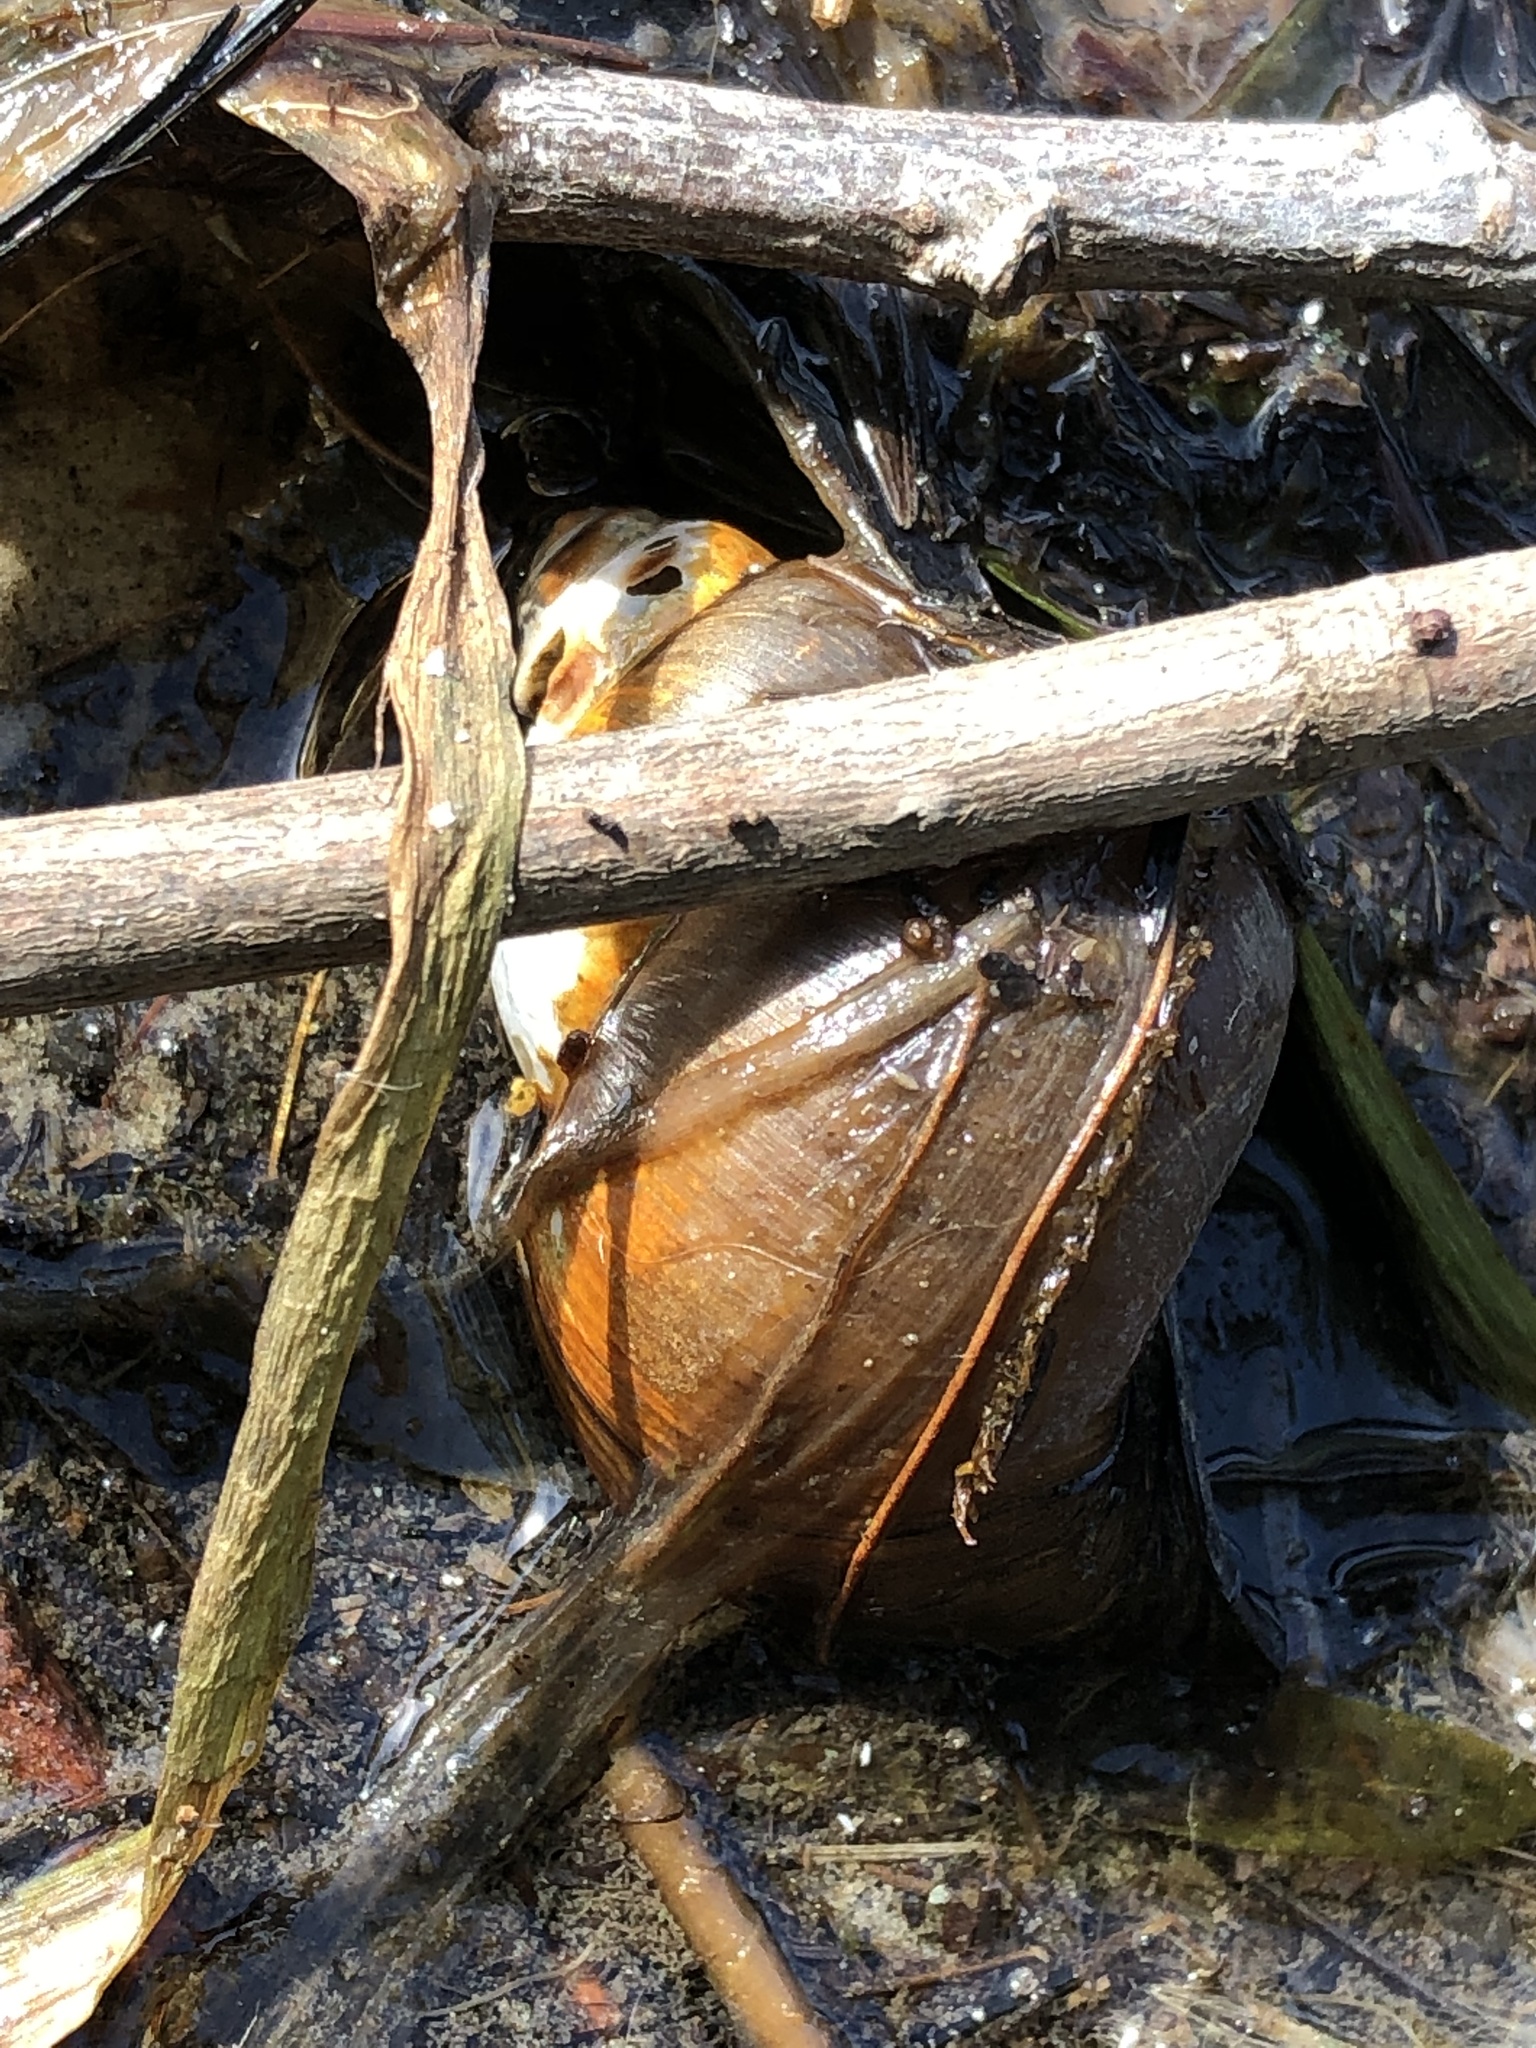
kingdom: Animalia
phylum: Mollusca
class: Gastropoda
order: Architaenioglossa
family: Viviparidae
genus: Cipangopaludina
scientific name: Cipangopaludina chinensis
